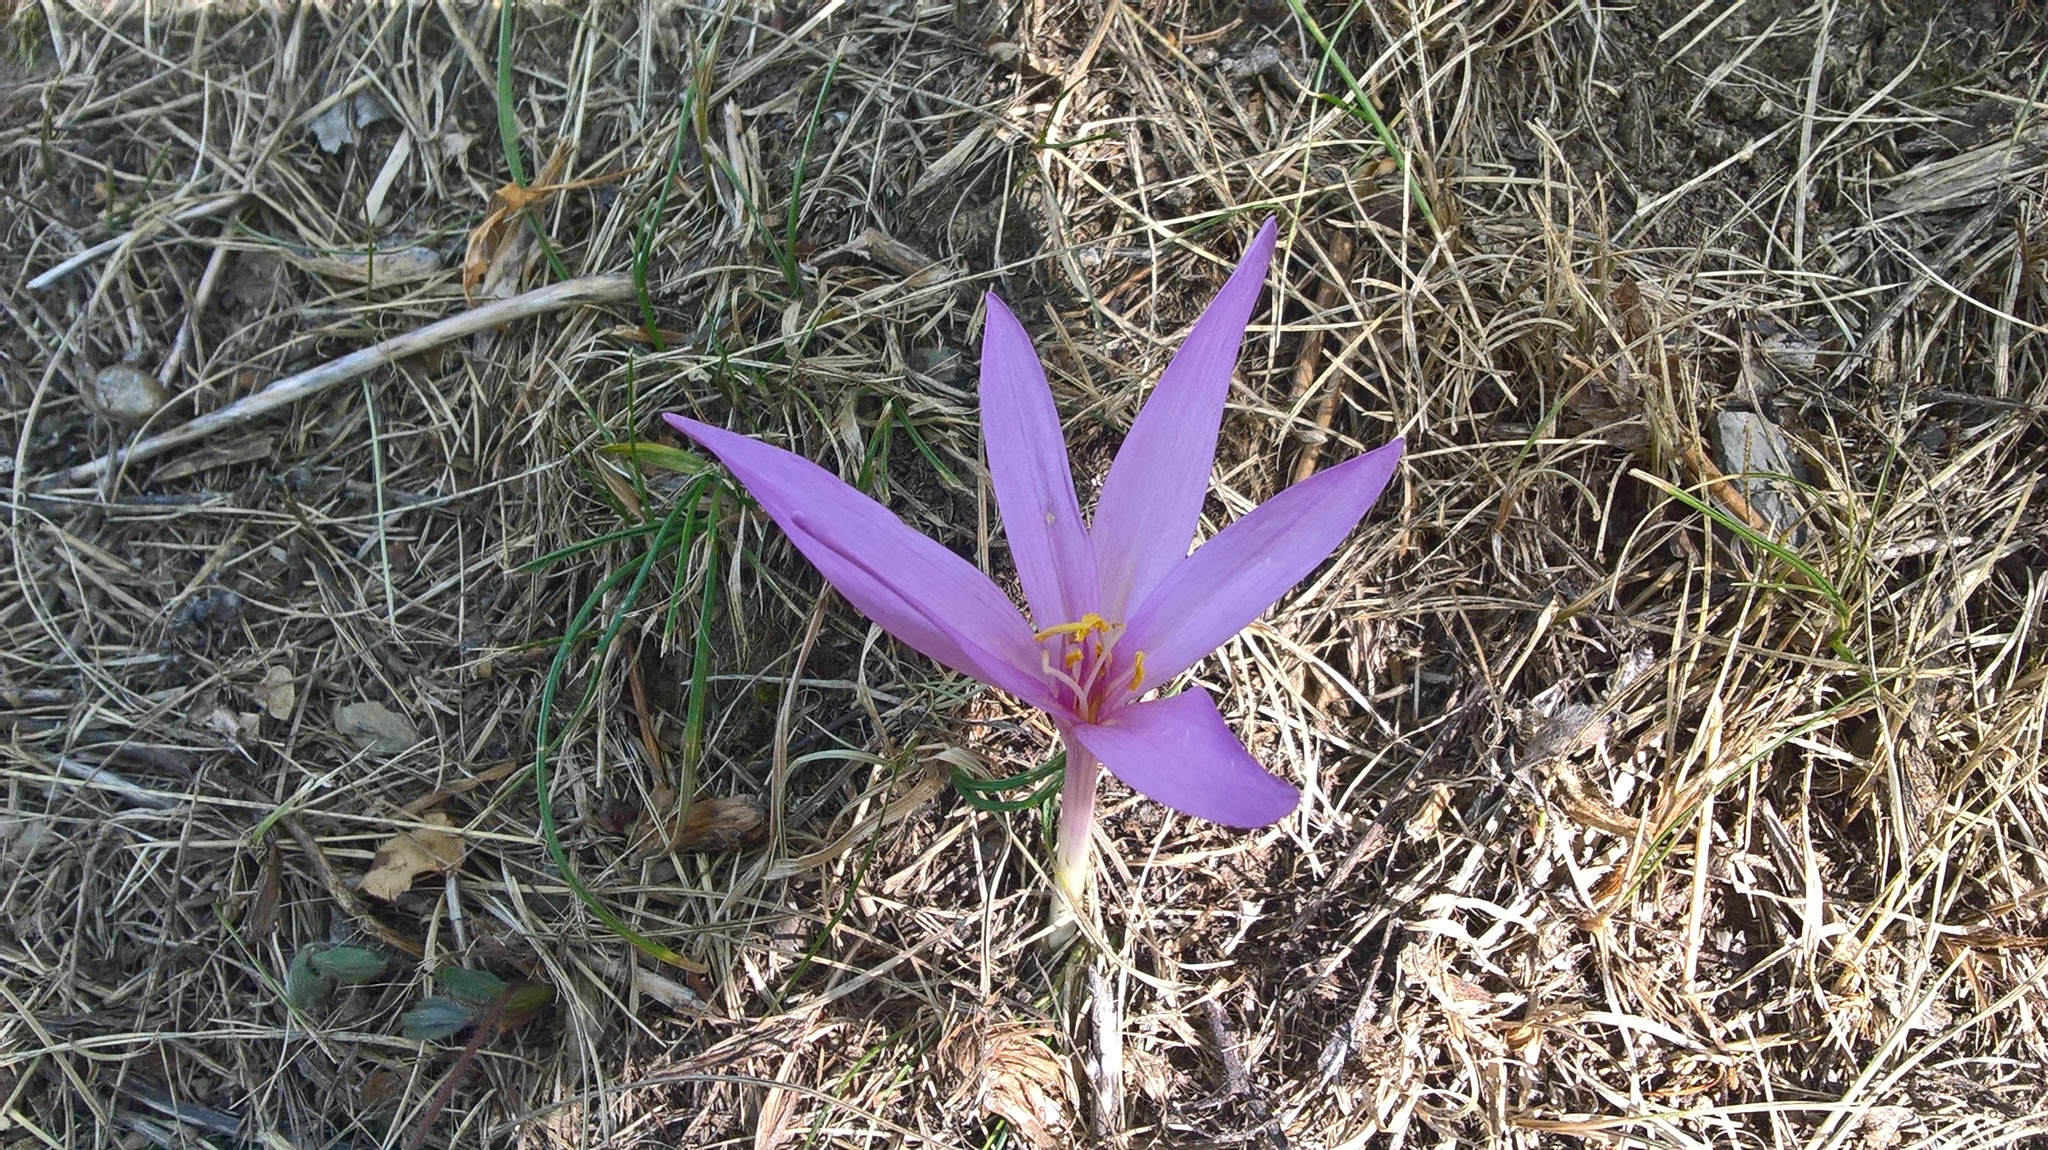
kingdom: Plantae
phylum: Tracheophyta
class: Liliopsida
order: Liliales
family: Colchicaceae
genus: Colchicum
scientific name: Colchicum autumnale
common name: Autumn crocus
